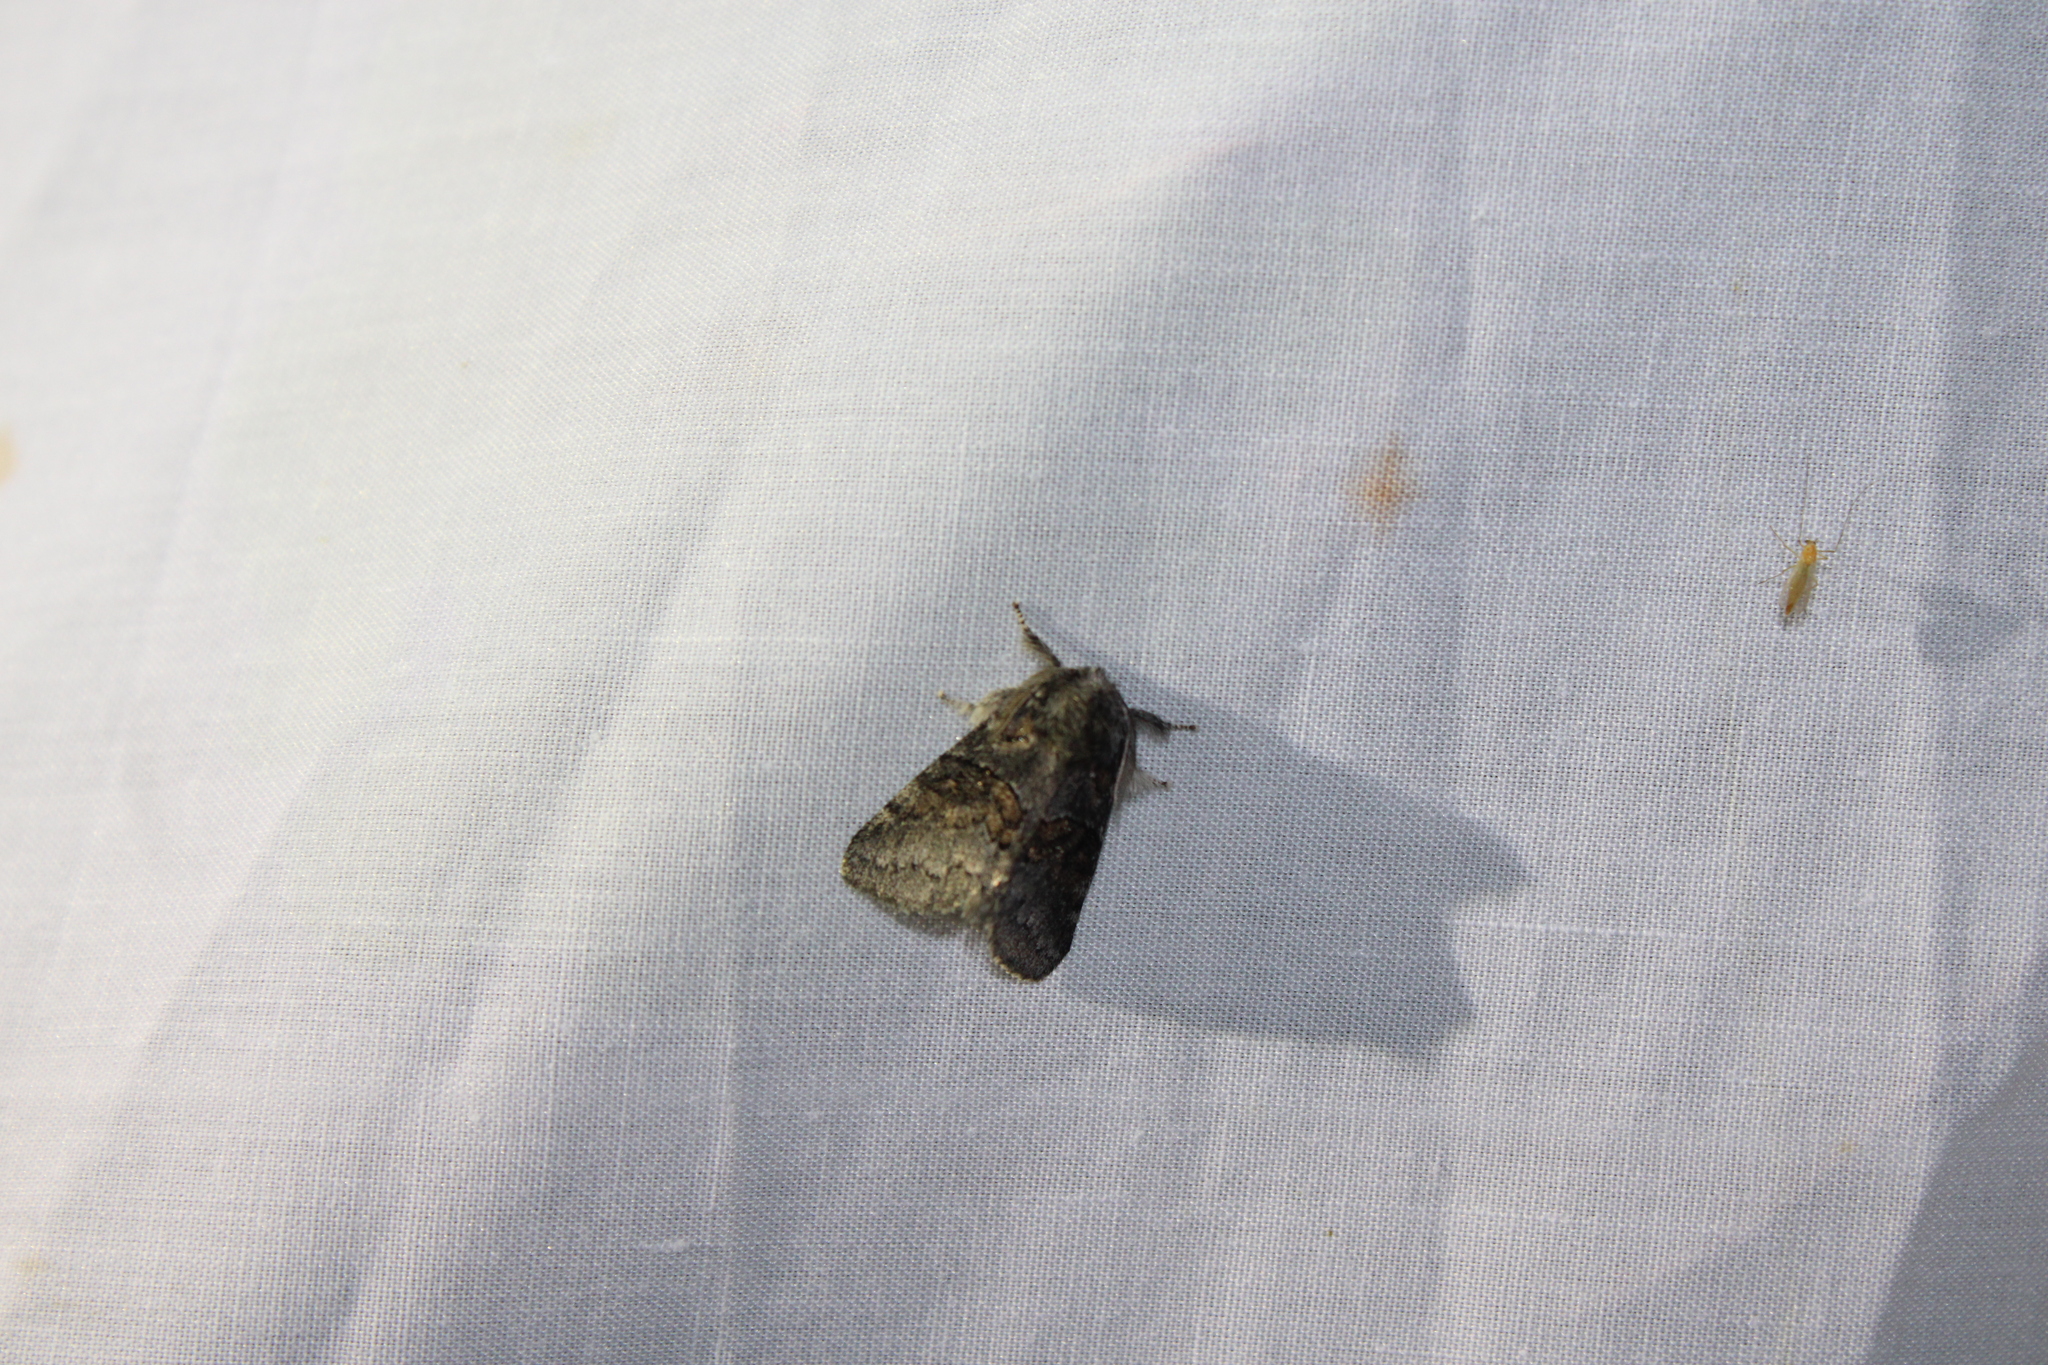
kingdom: Animalia
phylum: Arthropoda
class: Insecta
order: Lepidoptera
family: Notodontidae
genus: Gluphisia
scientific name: Gluphisia septentrionis
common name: Common gluphisia
